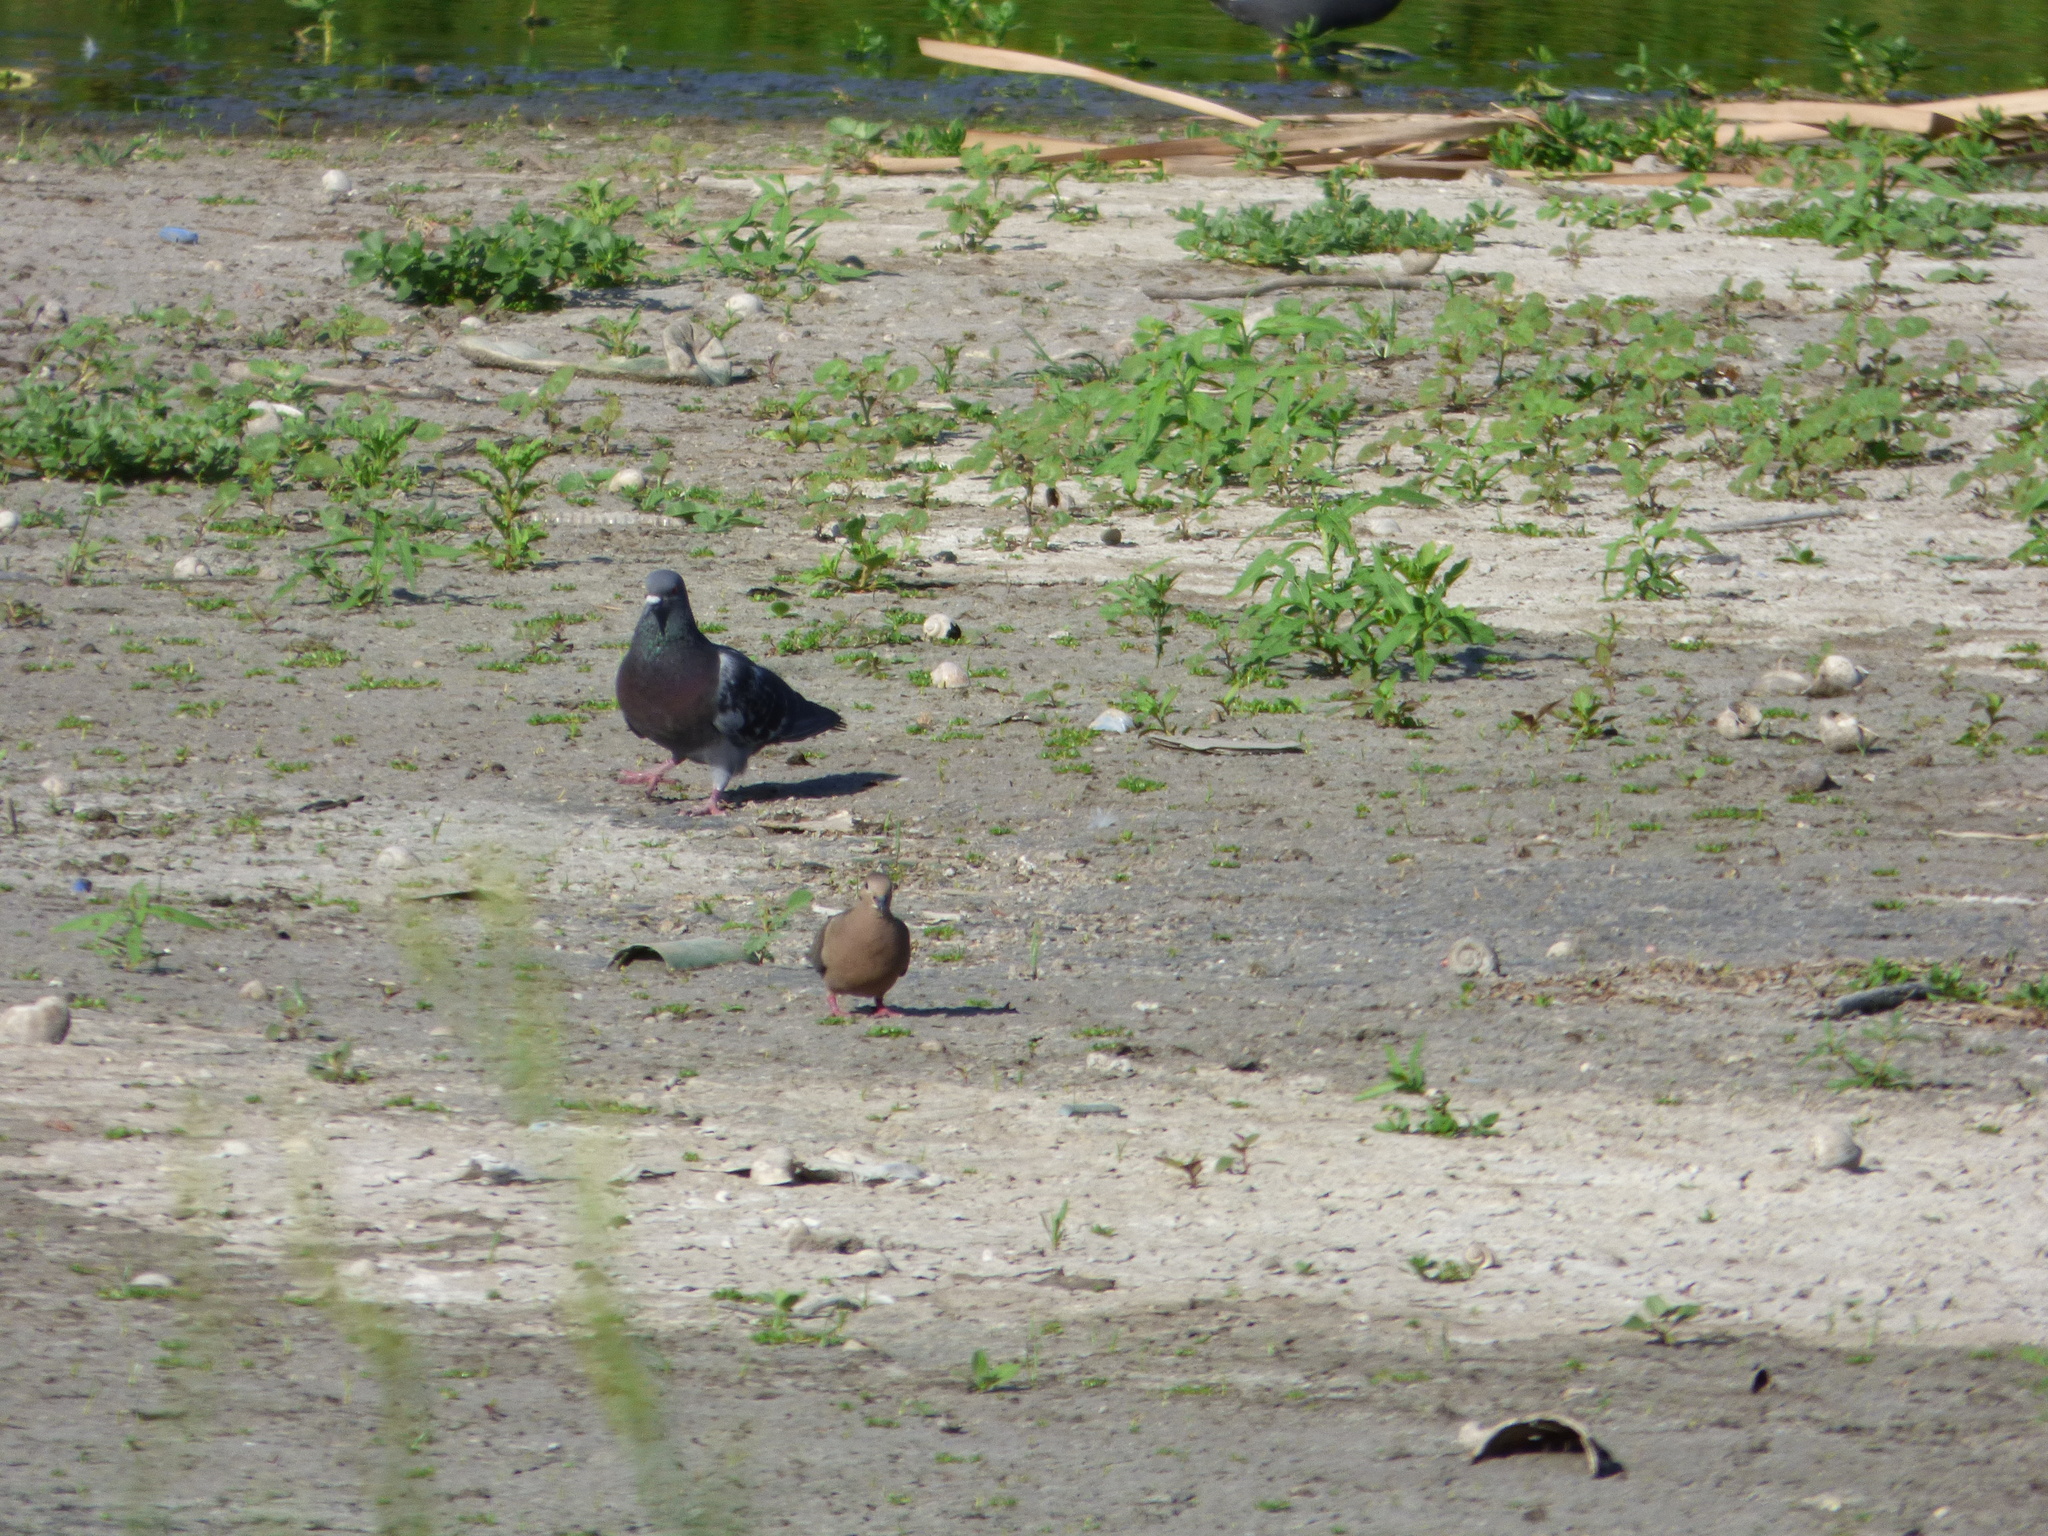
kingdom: Animalia
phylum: Chordata
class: Aves
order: Columbiformes
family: Columbidae
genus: Columba
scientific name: Columba livia
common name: Rock pigeon
